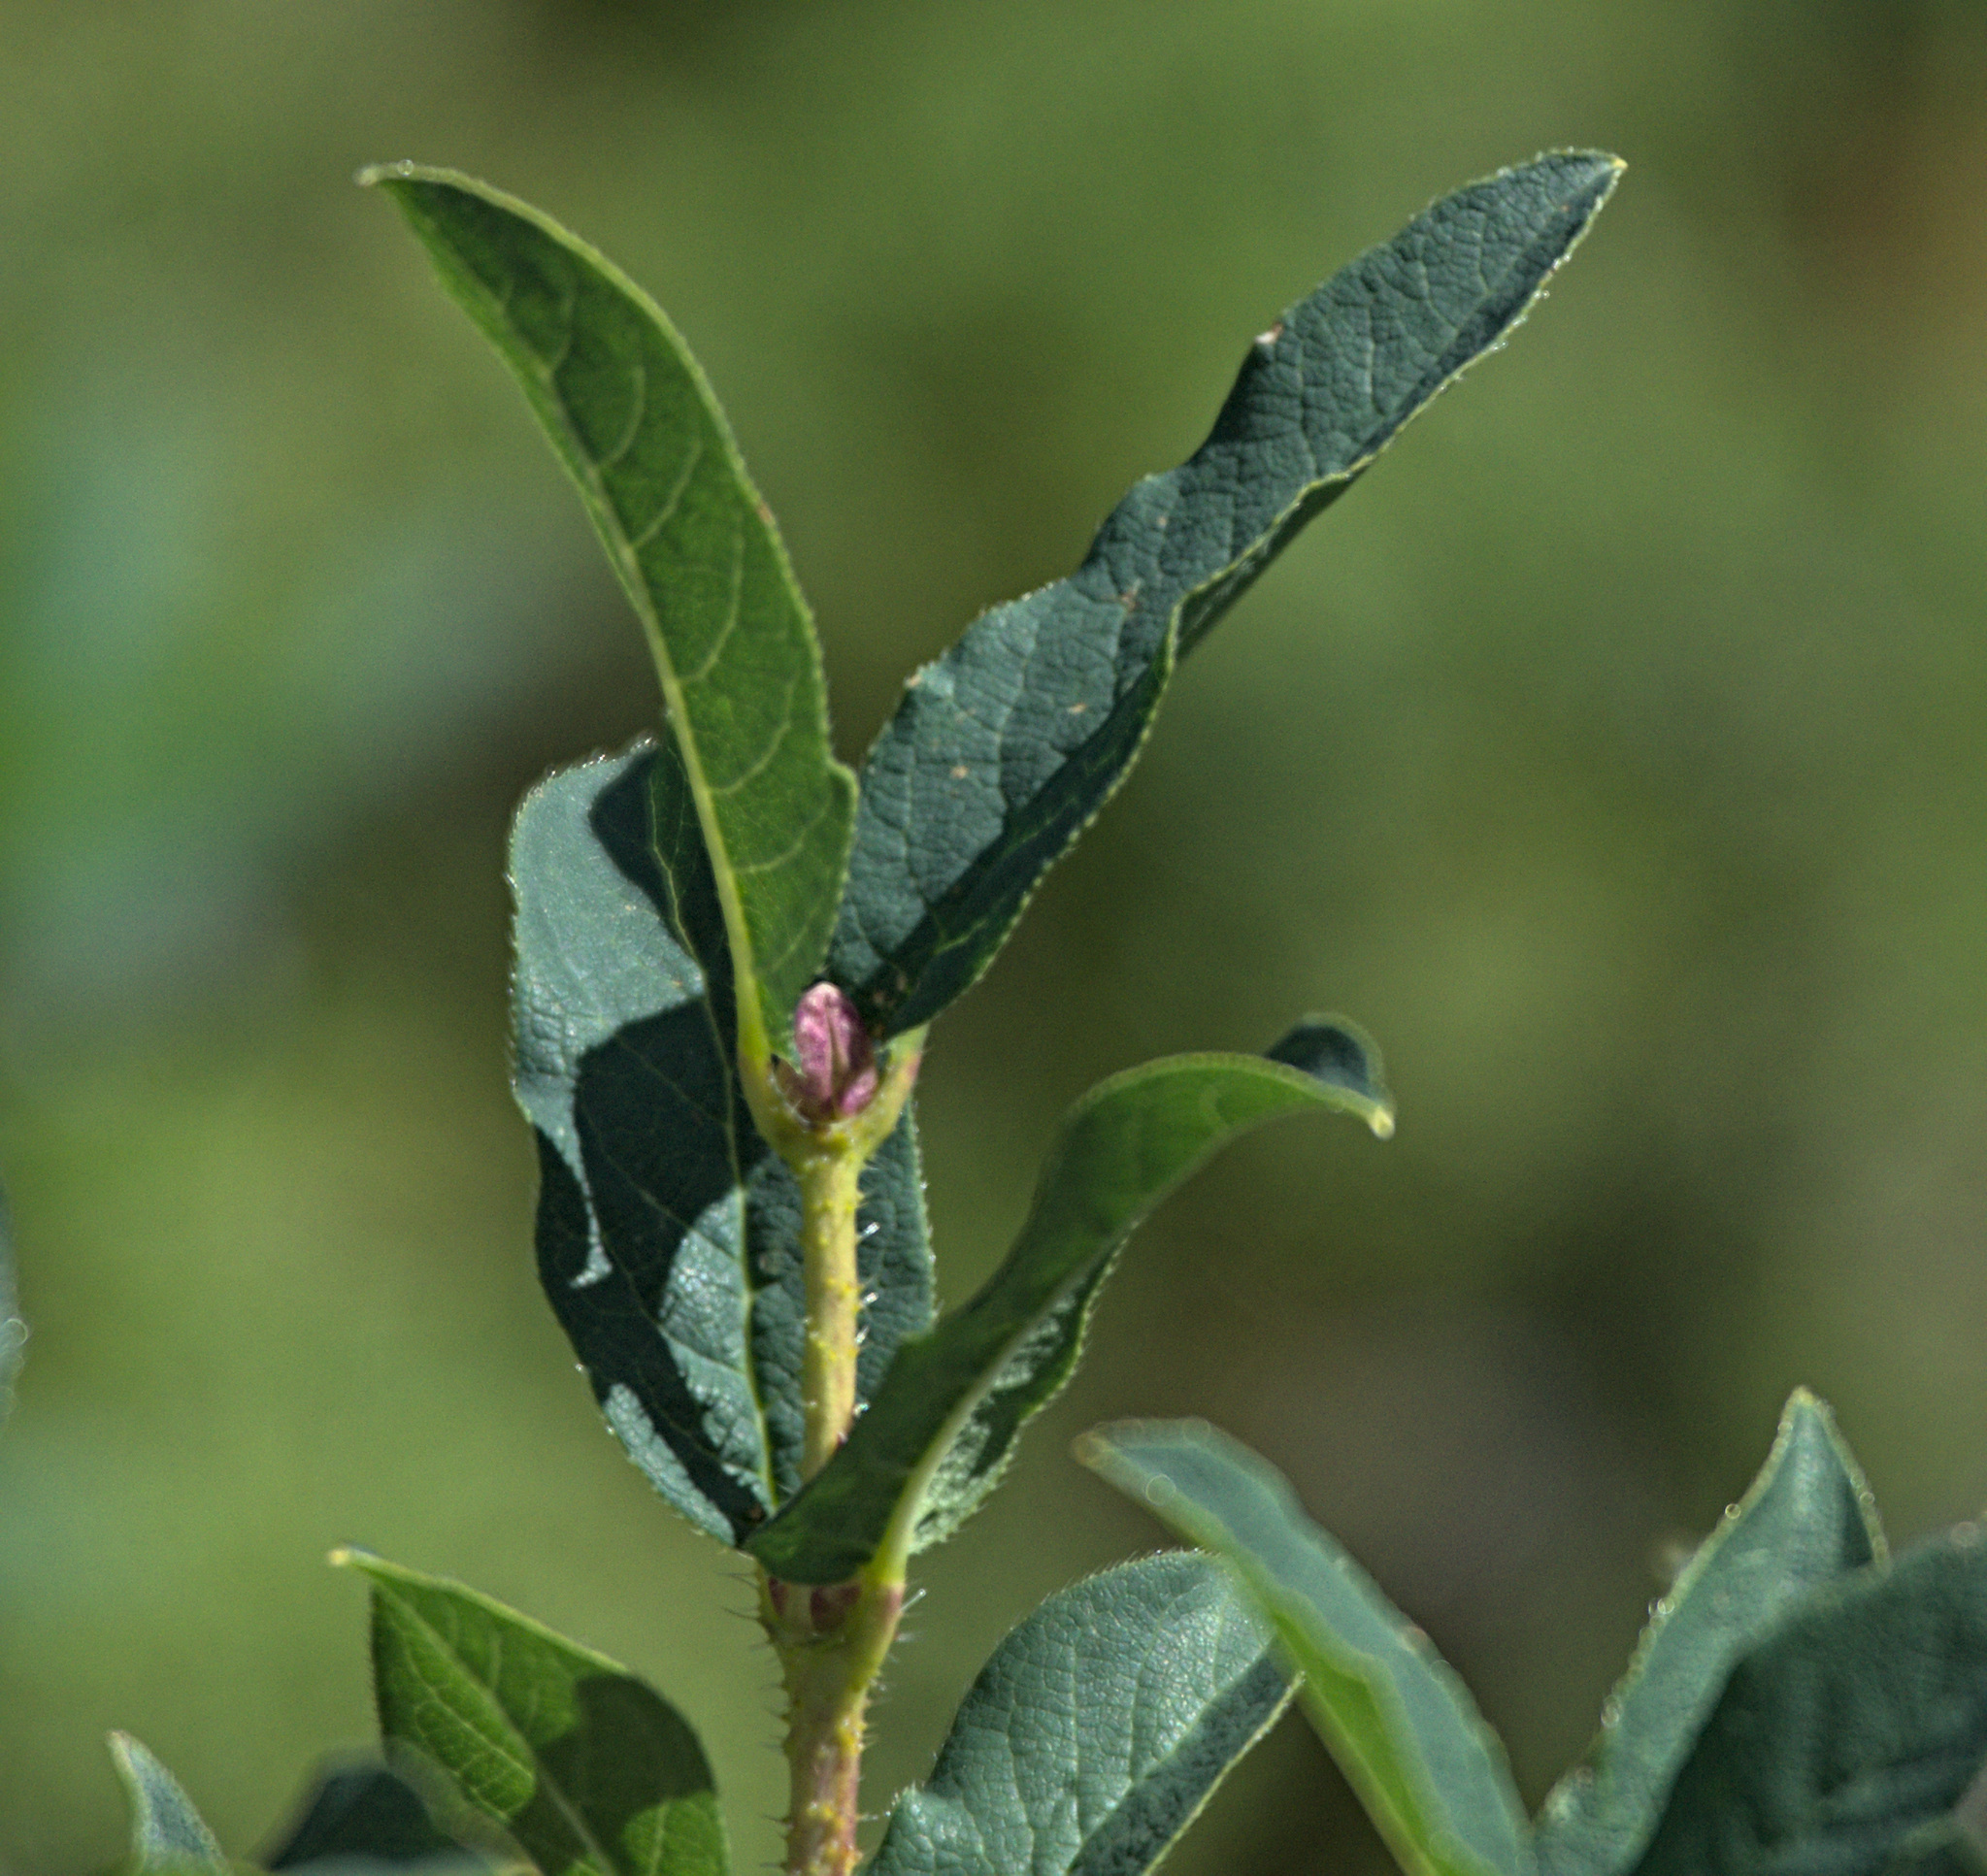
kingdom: Plantae
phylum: Tracheophyta
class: Magnoliopsida
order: Dipsacales
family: Caprifoliaceae
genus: Lonicera
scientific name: Lonicera hispida
